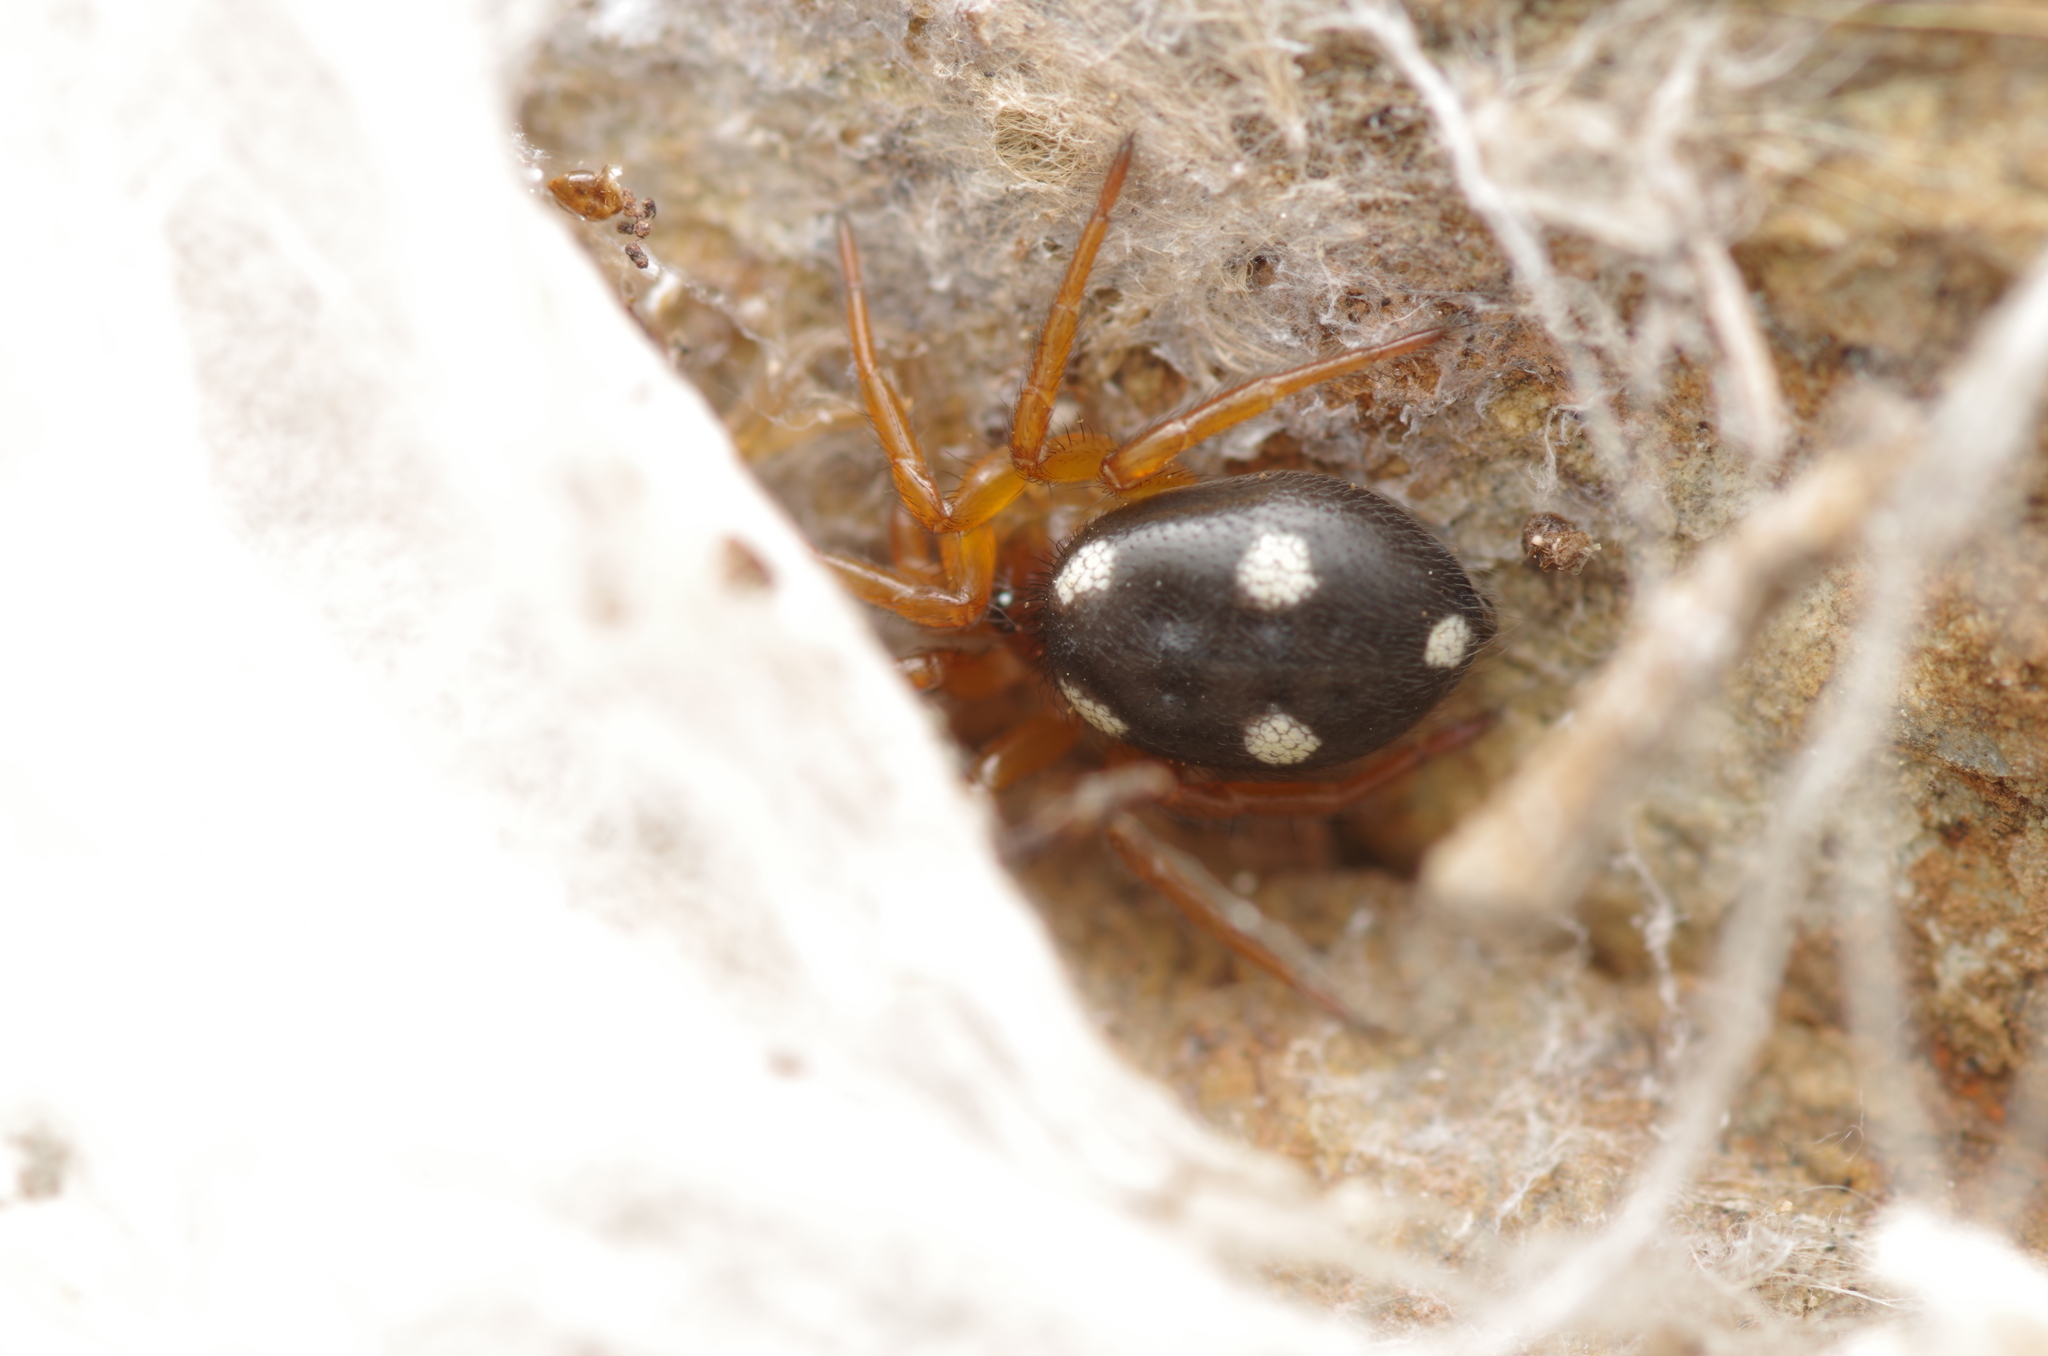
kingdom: Animalia
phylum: Arthropoda
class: Arachnida
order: Araneae
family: Oecobiidae
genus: Uroctea
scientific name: Uroctea durandi
